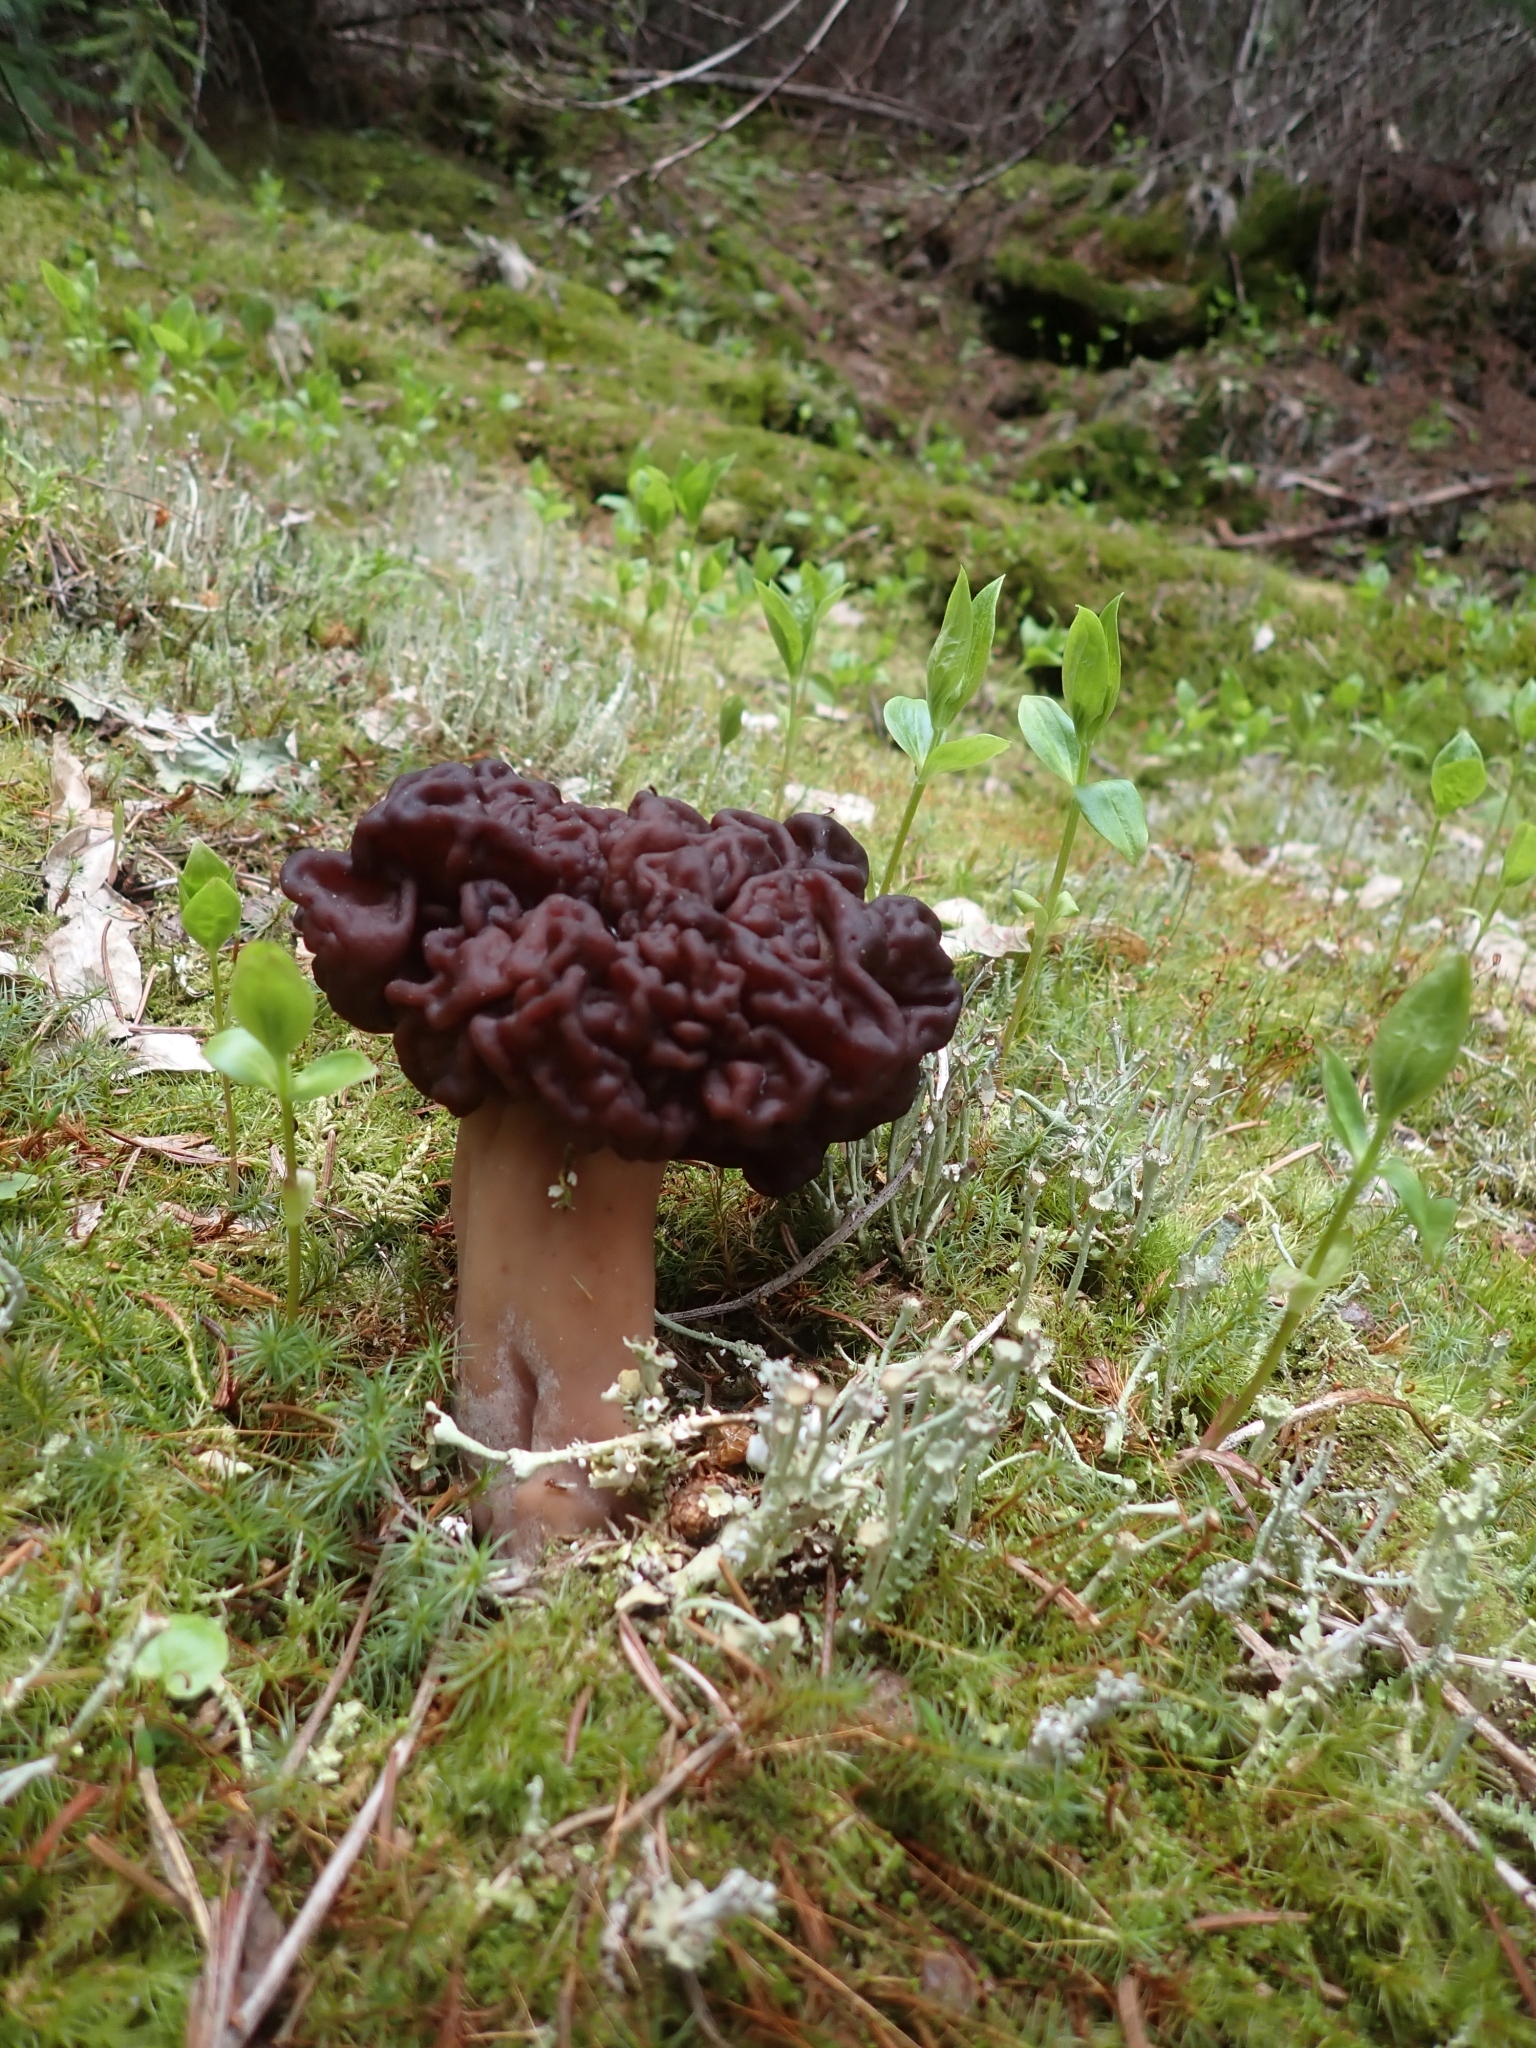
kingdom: Fungi
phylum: Ascomycota
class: Pezizomycetes
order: Pezizales
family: Discinaceae
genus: Gyromitra
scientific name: Gyromitra esculenta
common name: False morel
